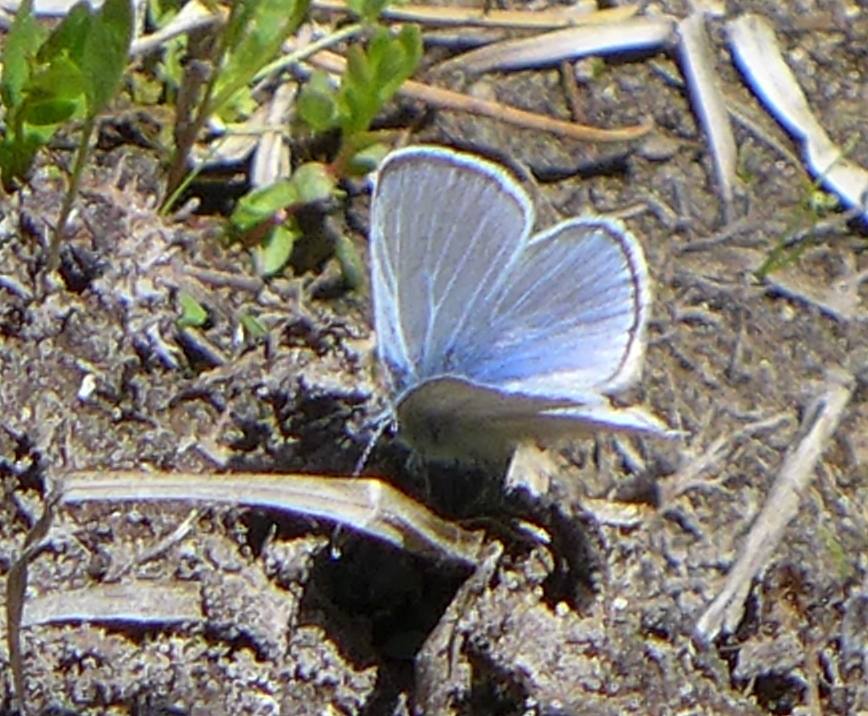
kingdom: Animalia
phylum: Arthropoda
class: Insecta
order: Lepidoptera
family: Lycaenidae
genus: Glaucopsyche
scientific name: Glaucopsyche lygdamus
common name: Silvery blue
